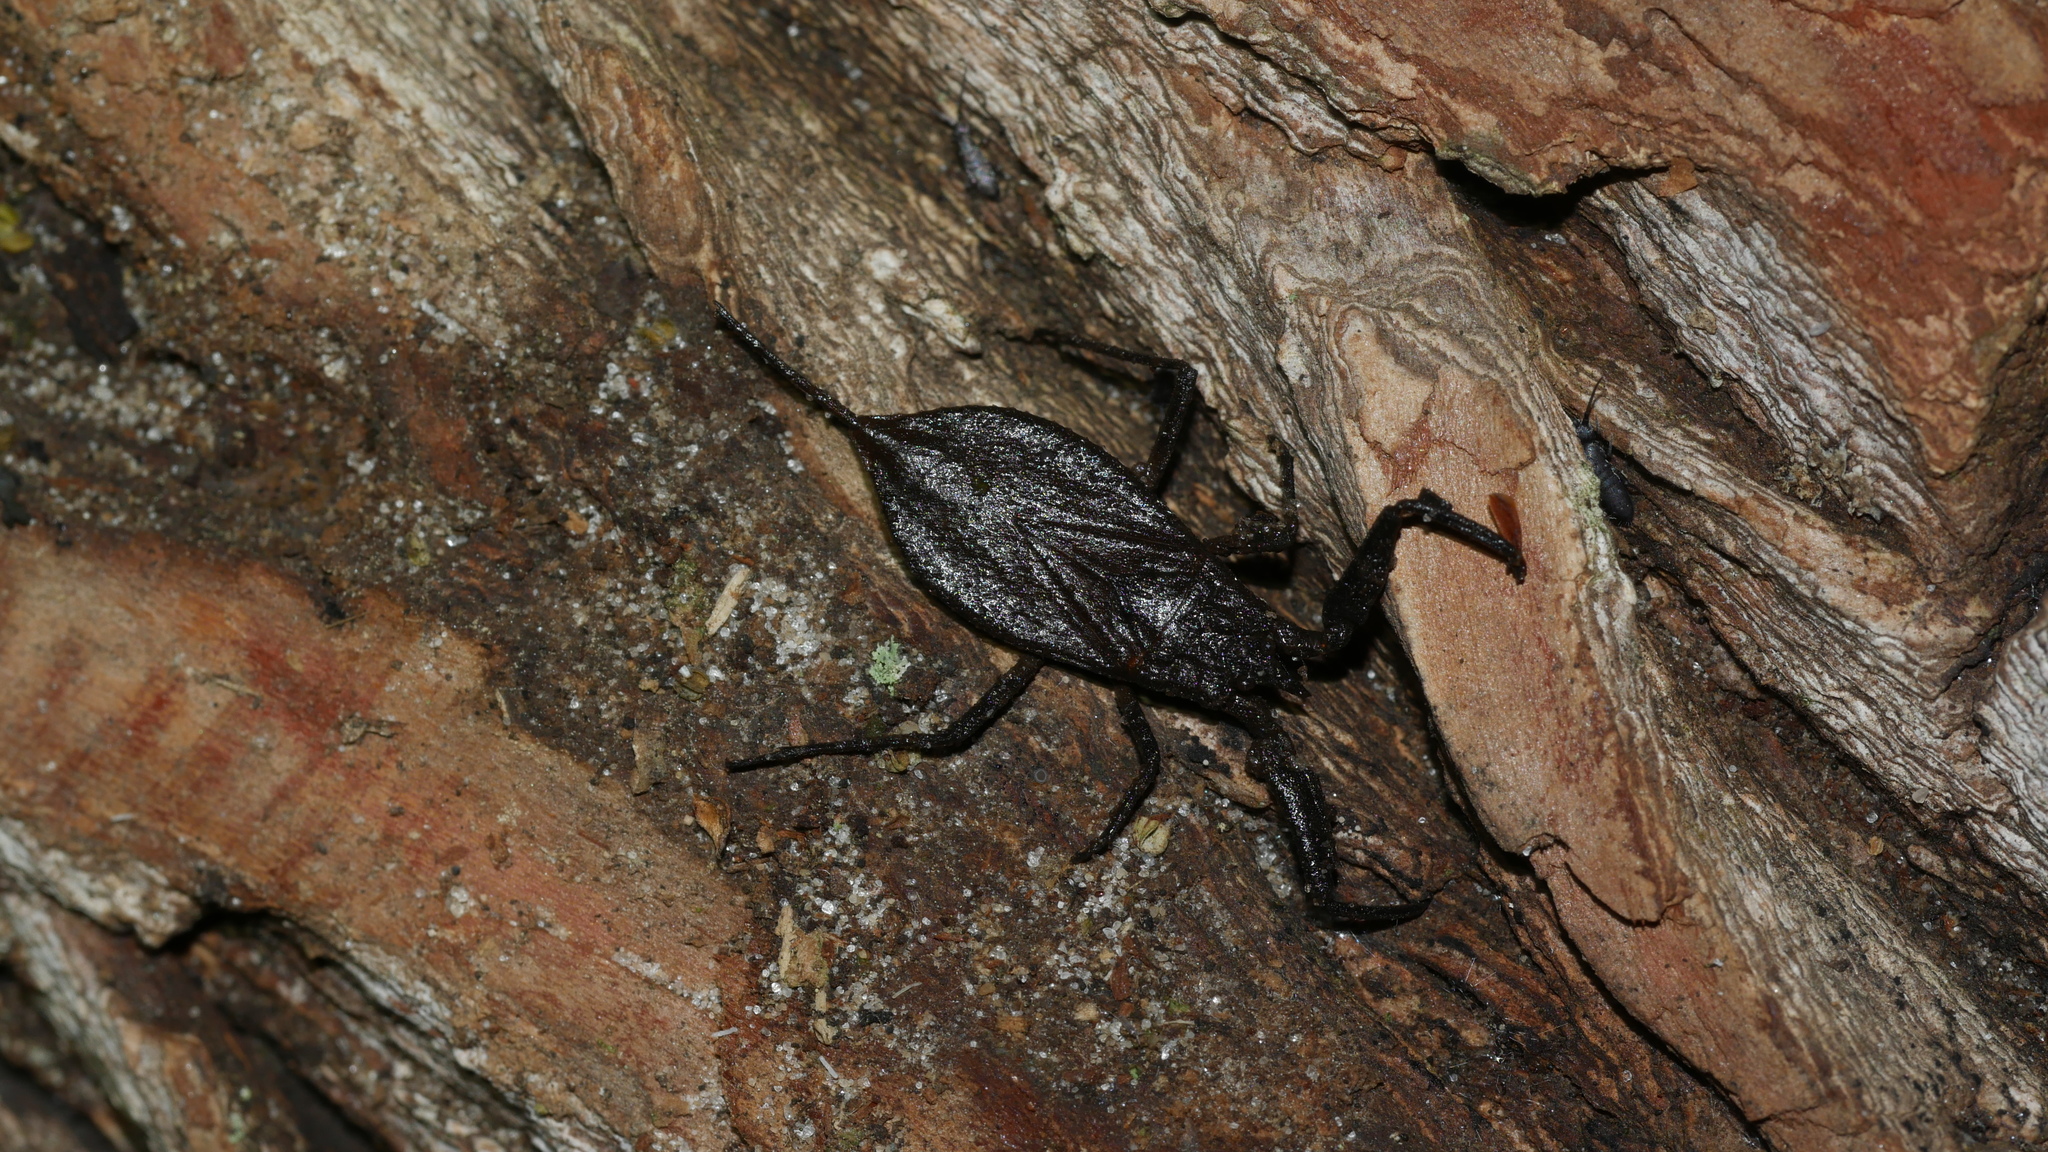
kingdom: Animalia
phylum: Arthropoda
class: Insecta
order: Hemiptera
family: Nepidae
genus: Nepa
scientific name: Nepa apiculata
